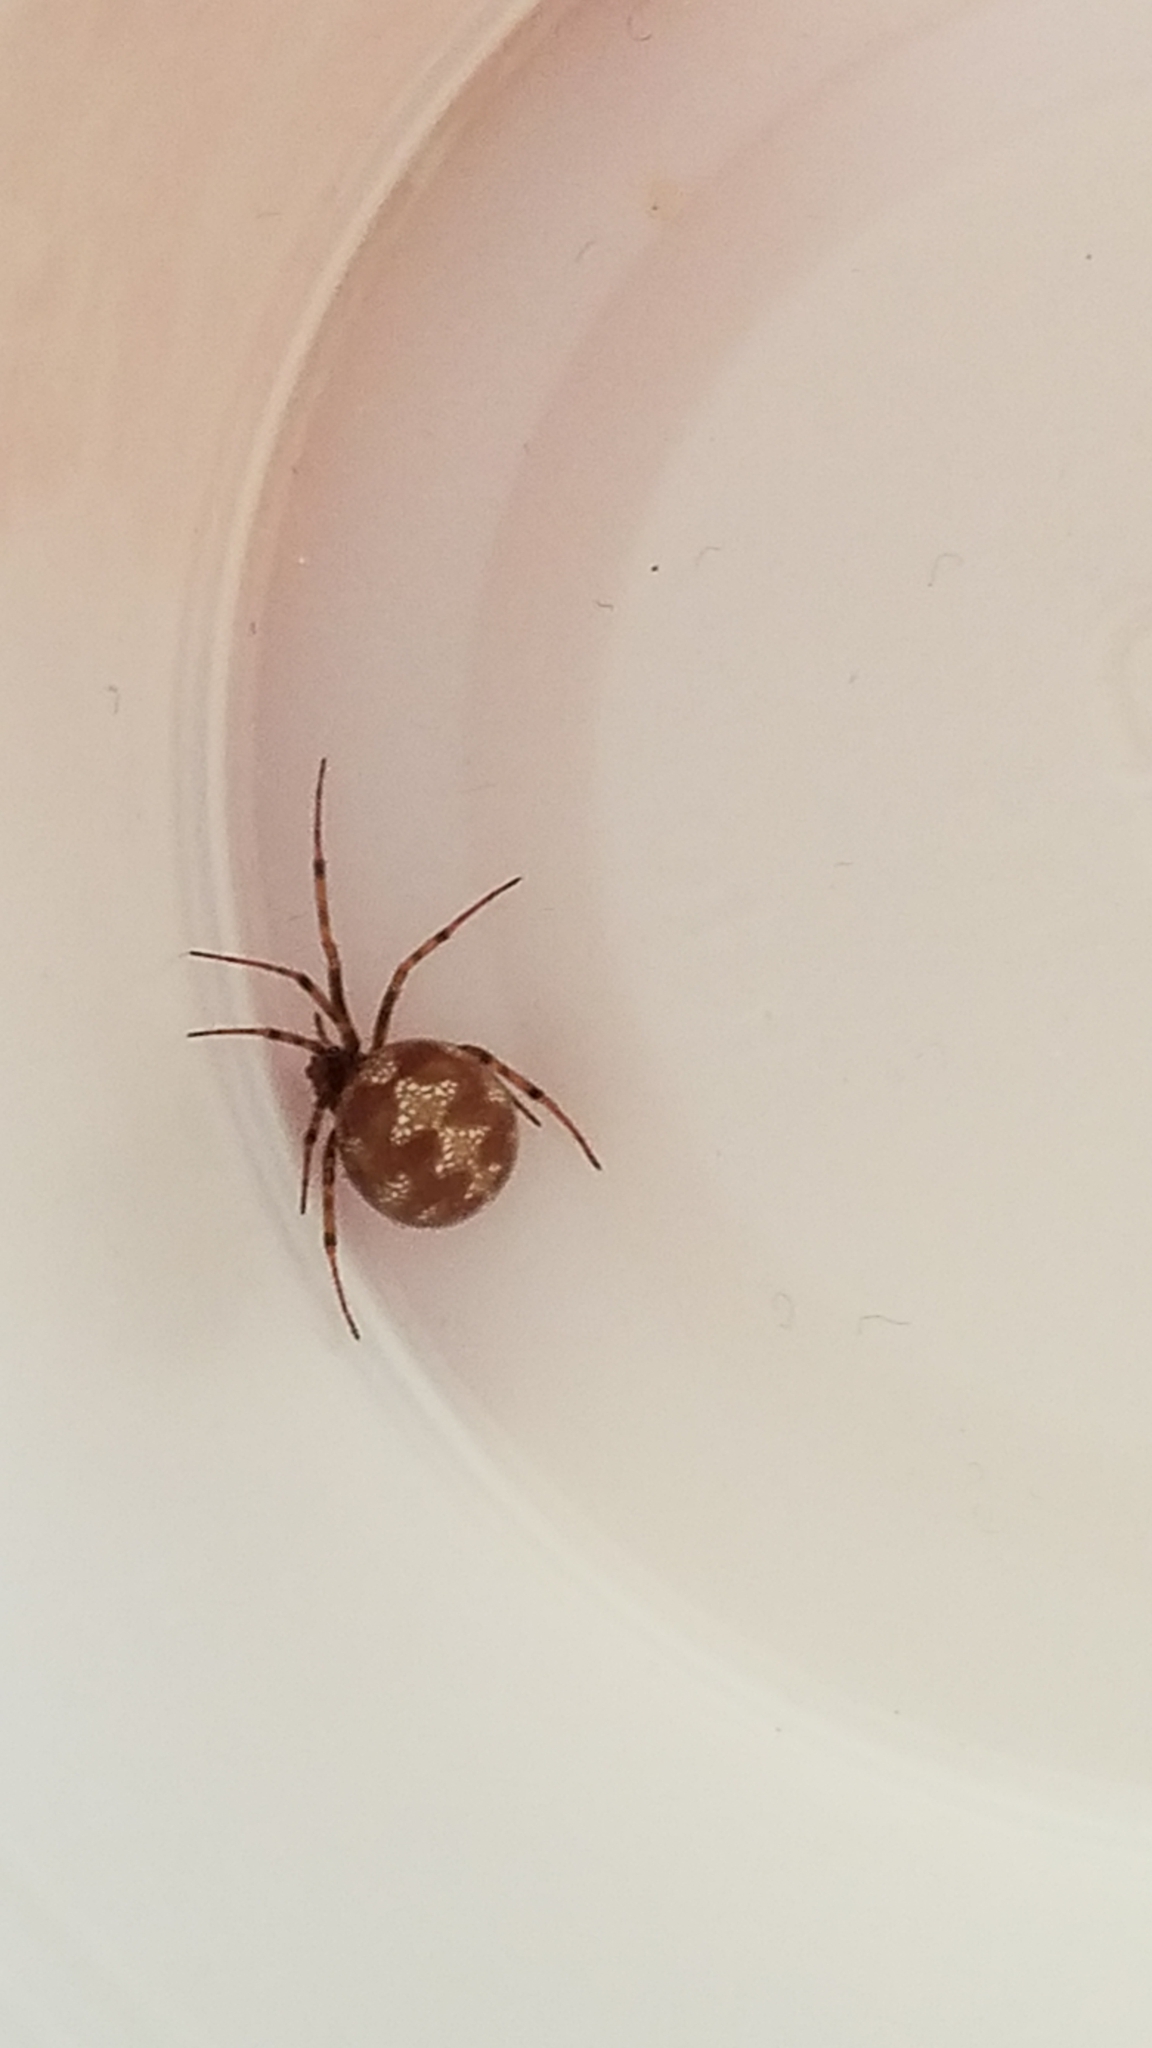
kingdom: Animalia
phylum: Arthropoda
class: Arachnida
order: Araneae
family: Theridiidae
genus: Steatoda
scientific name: Steatoda triangulosa
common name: Triangulate bud spider
